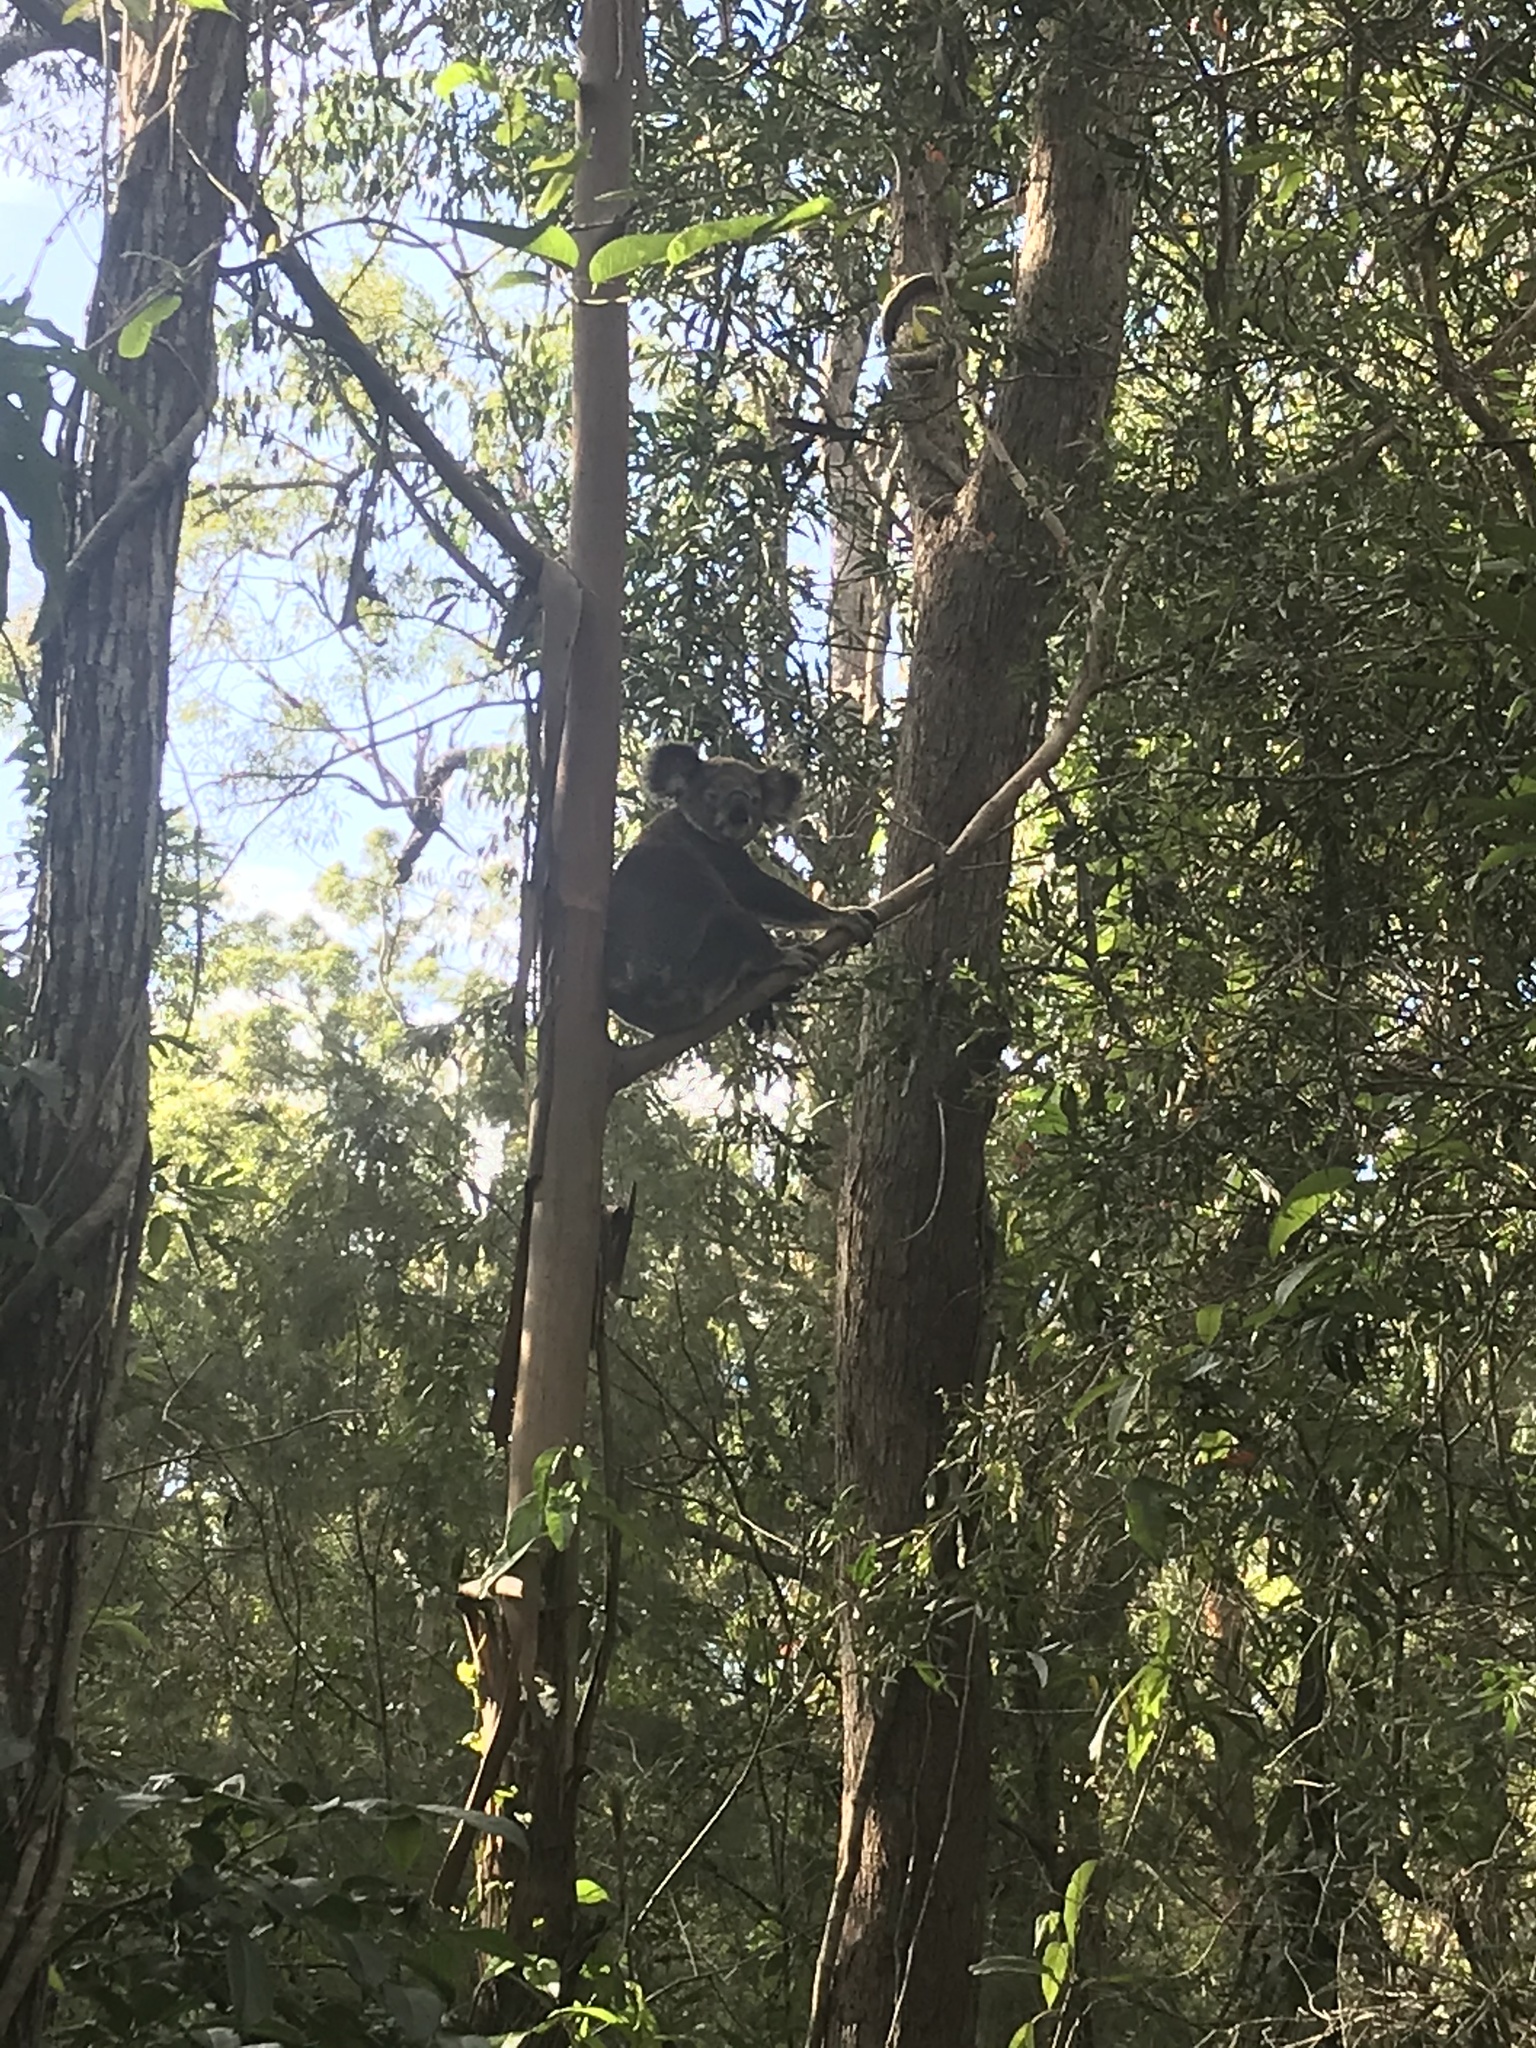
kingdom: Animalia
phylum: Chordata
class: Mammalia
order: Diprotodontia
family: Phascolarctidae
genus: Phascolarctos
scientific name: Phascolarctos cinereus
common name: Koala
